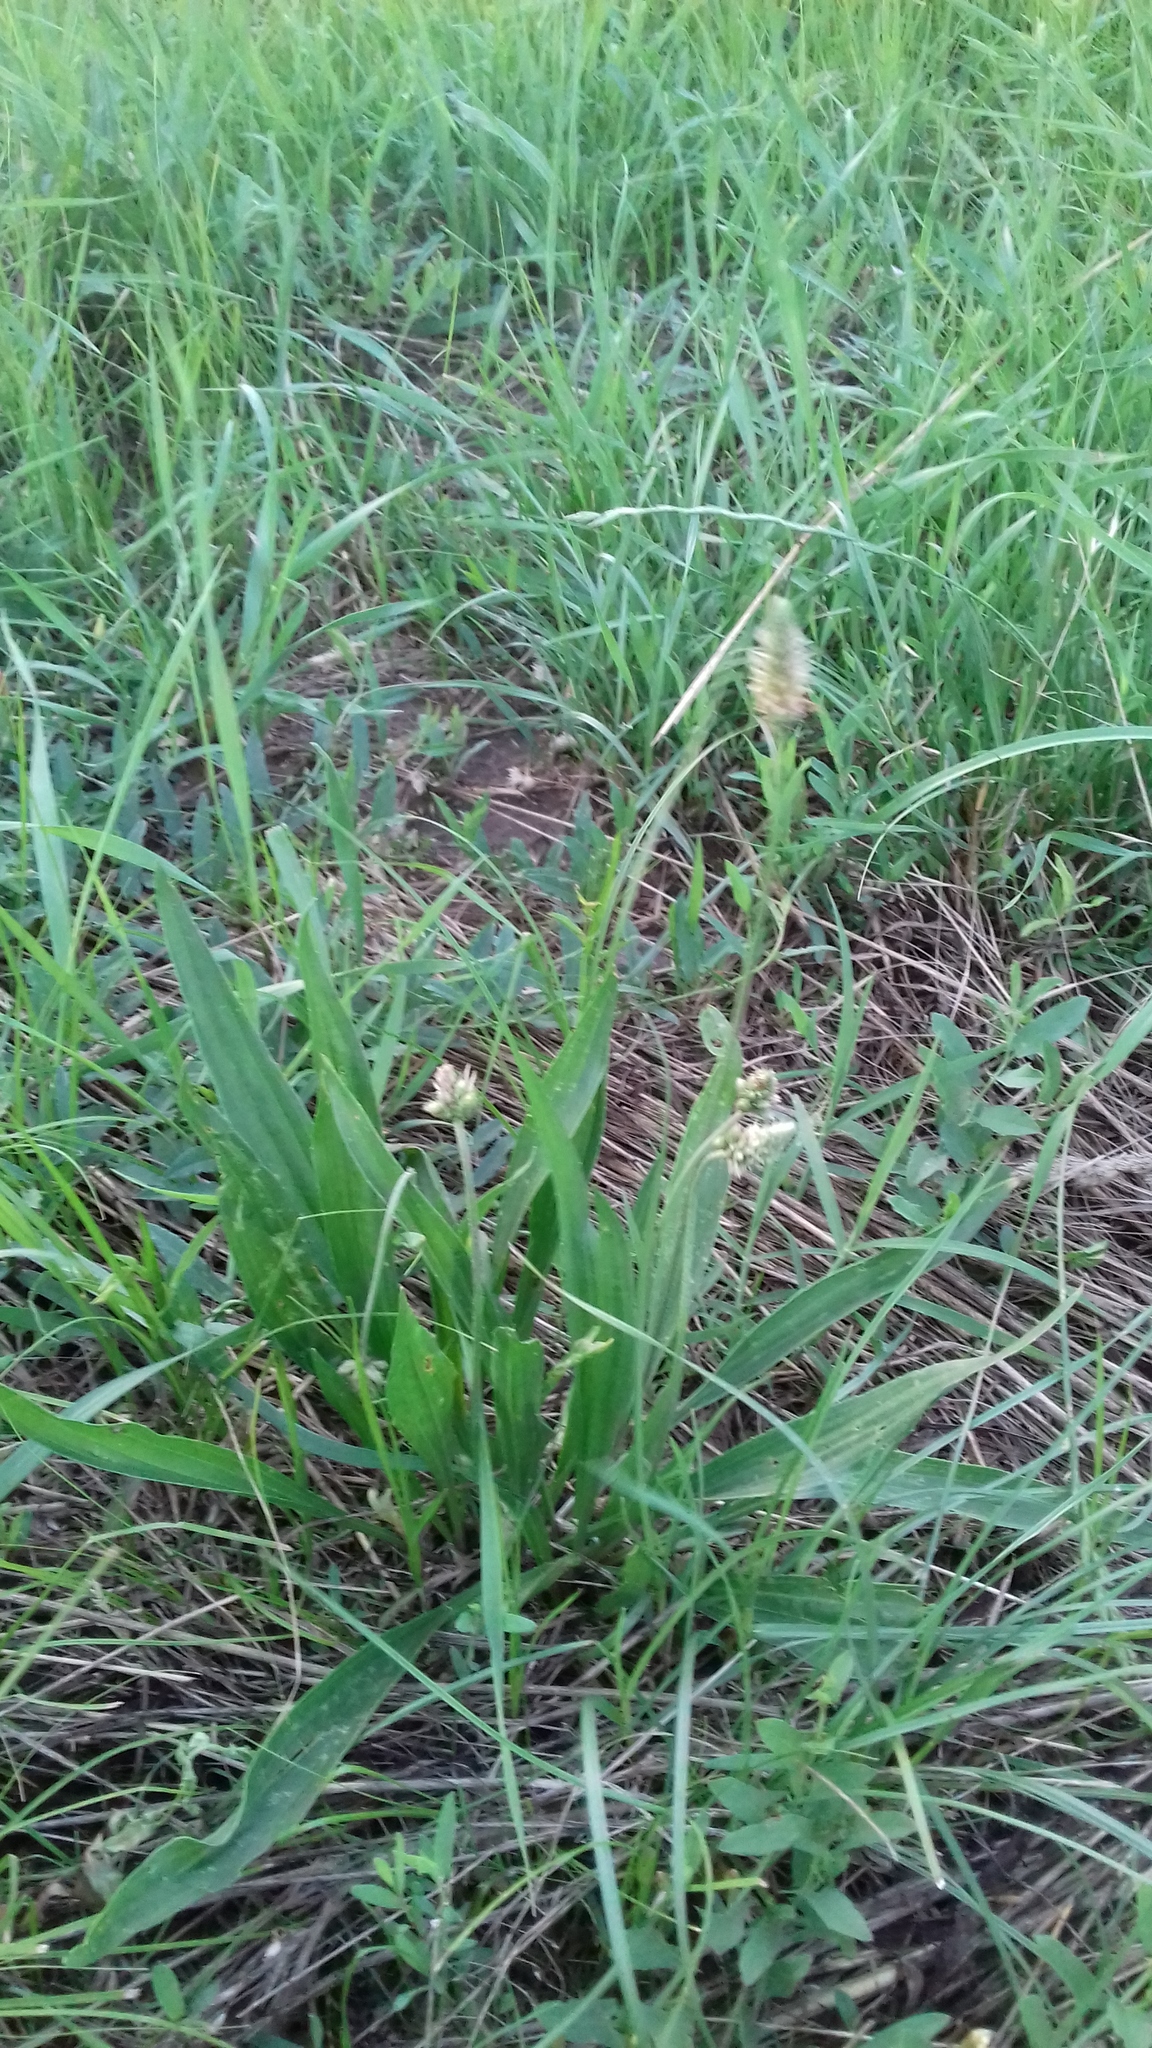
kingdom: Plantae
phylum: Tracheophyta
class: Magnoliopsida
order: Lamiales
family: Plantaginaceae
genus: Plantago
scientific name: Plantago lanceolata
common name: Ribwort plantain
